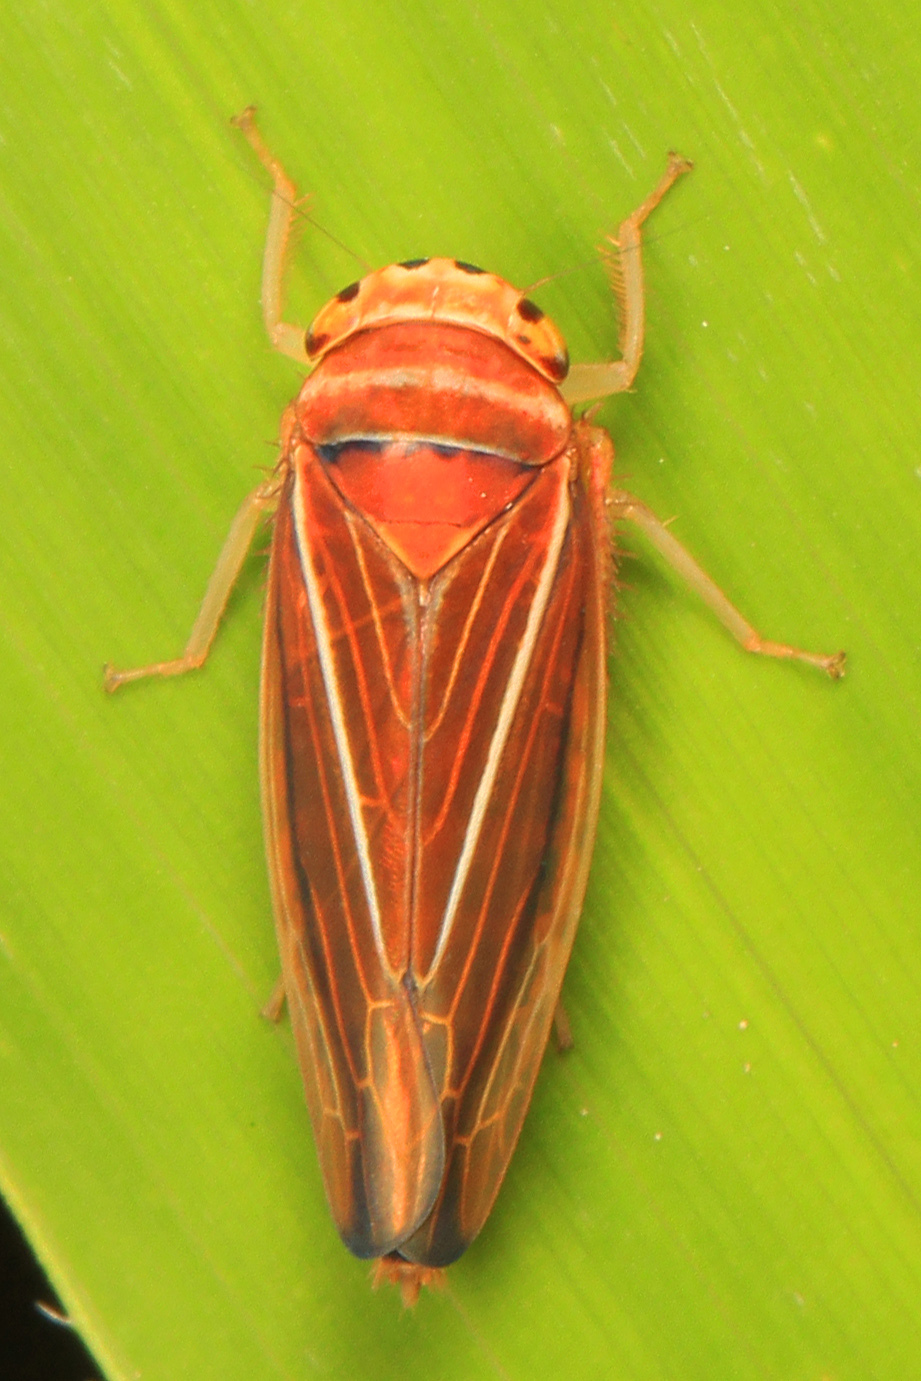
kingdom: Animalia
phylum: Arthropoda
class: Insecta
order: Hemiptera
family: Cicadellidae
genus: Idiodonus
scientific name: Idiodonus kennicotti
